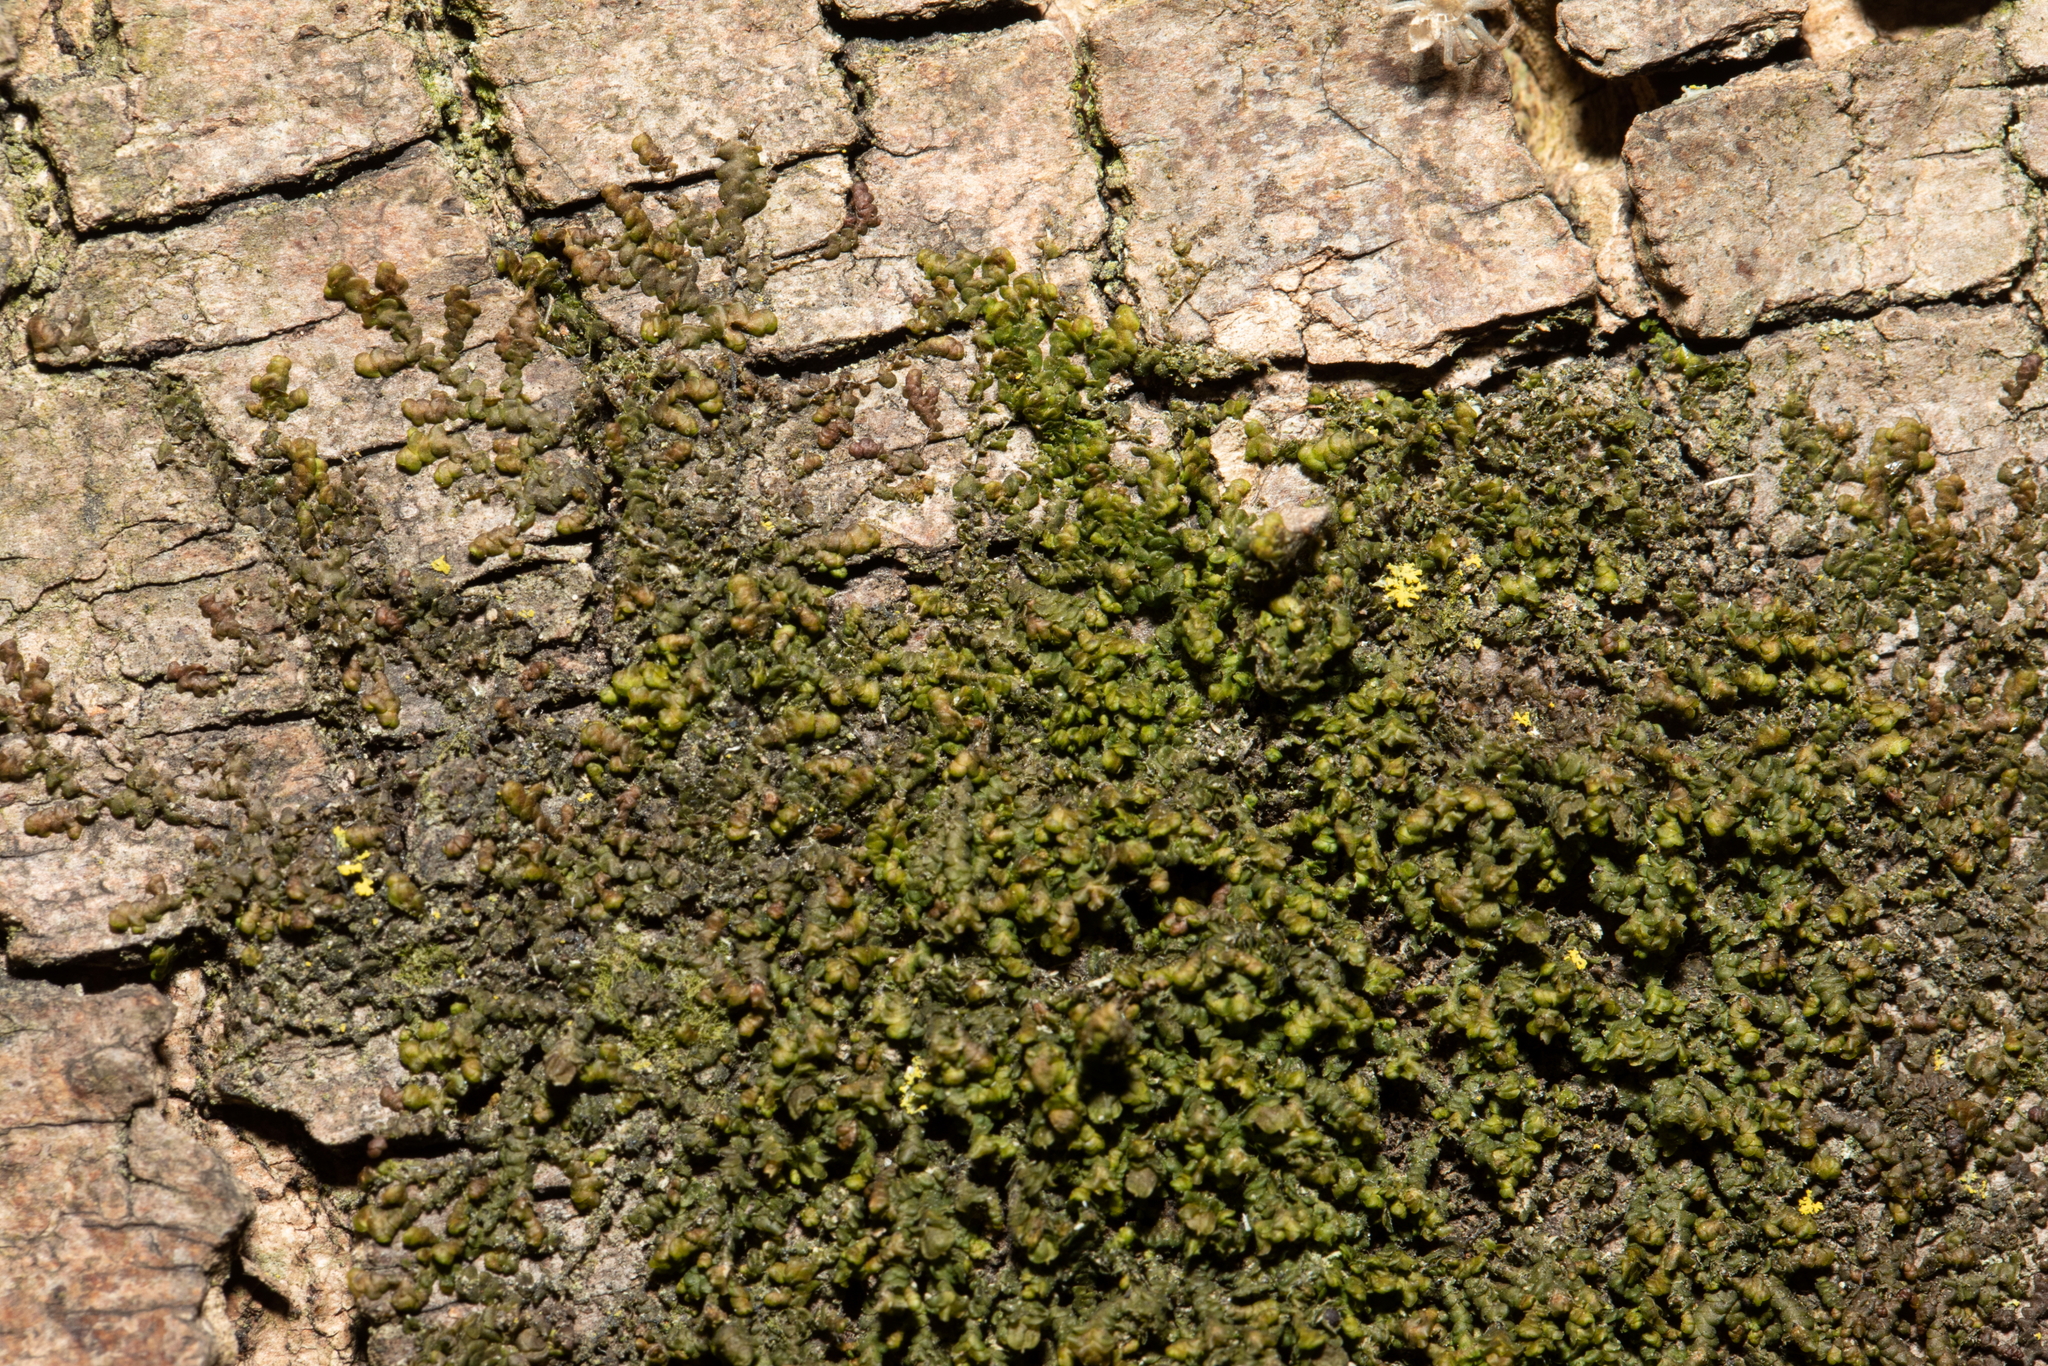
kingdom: Plantae
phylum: Marchantiophyta
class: Jungermanniopsida
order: Porellales
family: Frullaniaceae
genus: Frullania
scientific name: Frullania dilatata
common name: Dilated scalewort
